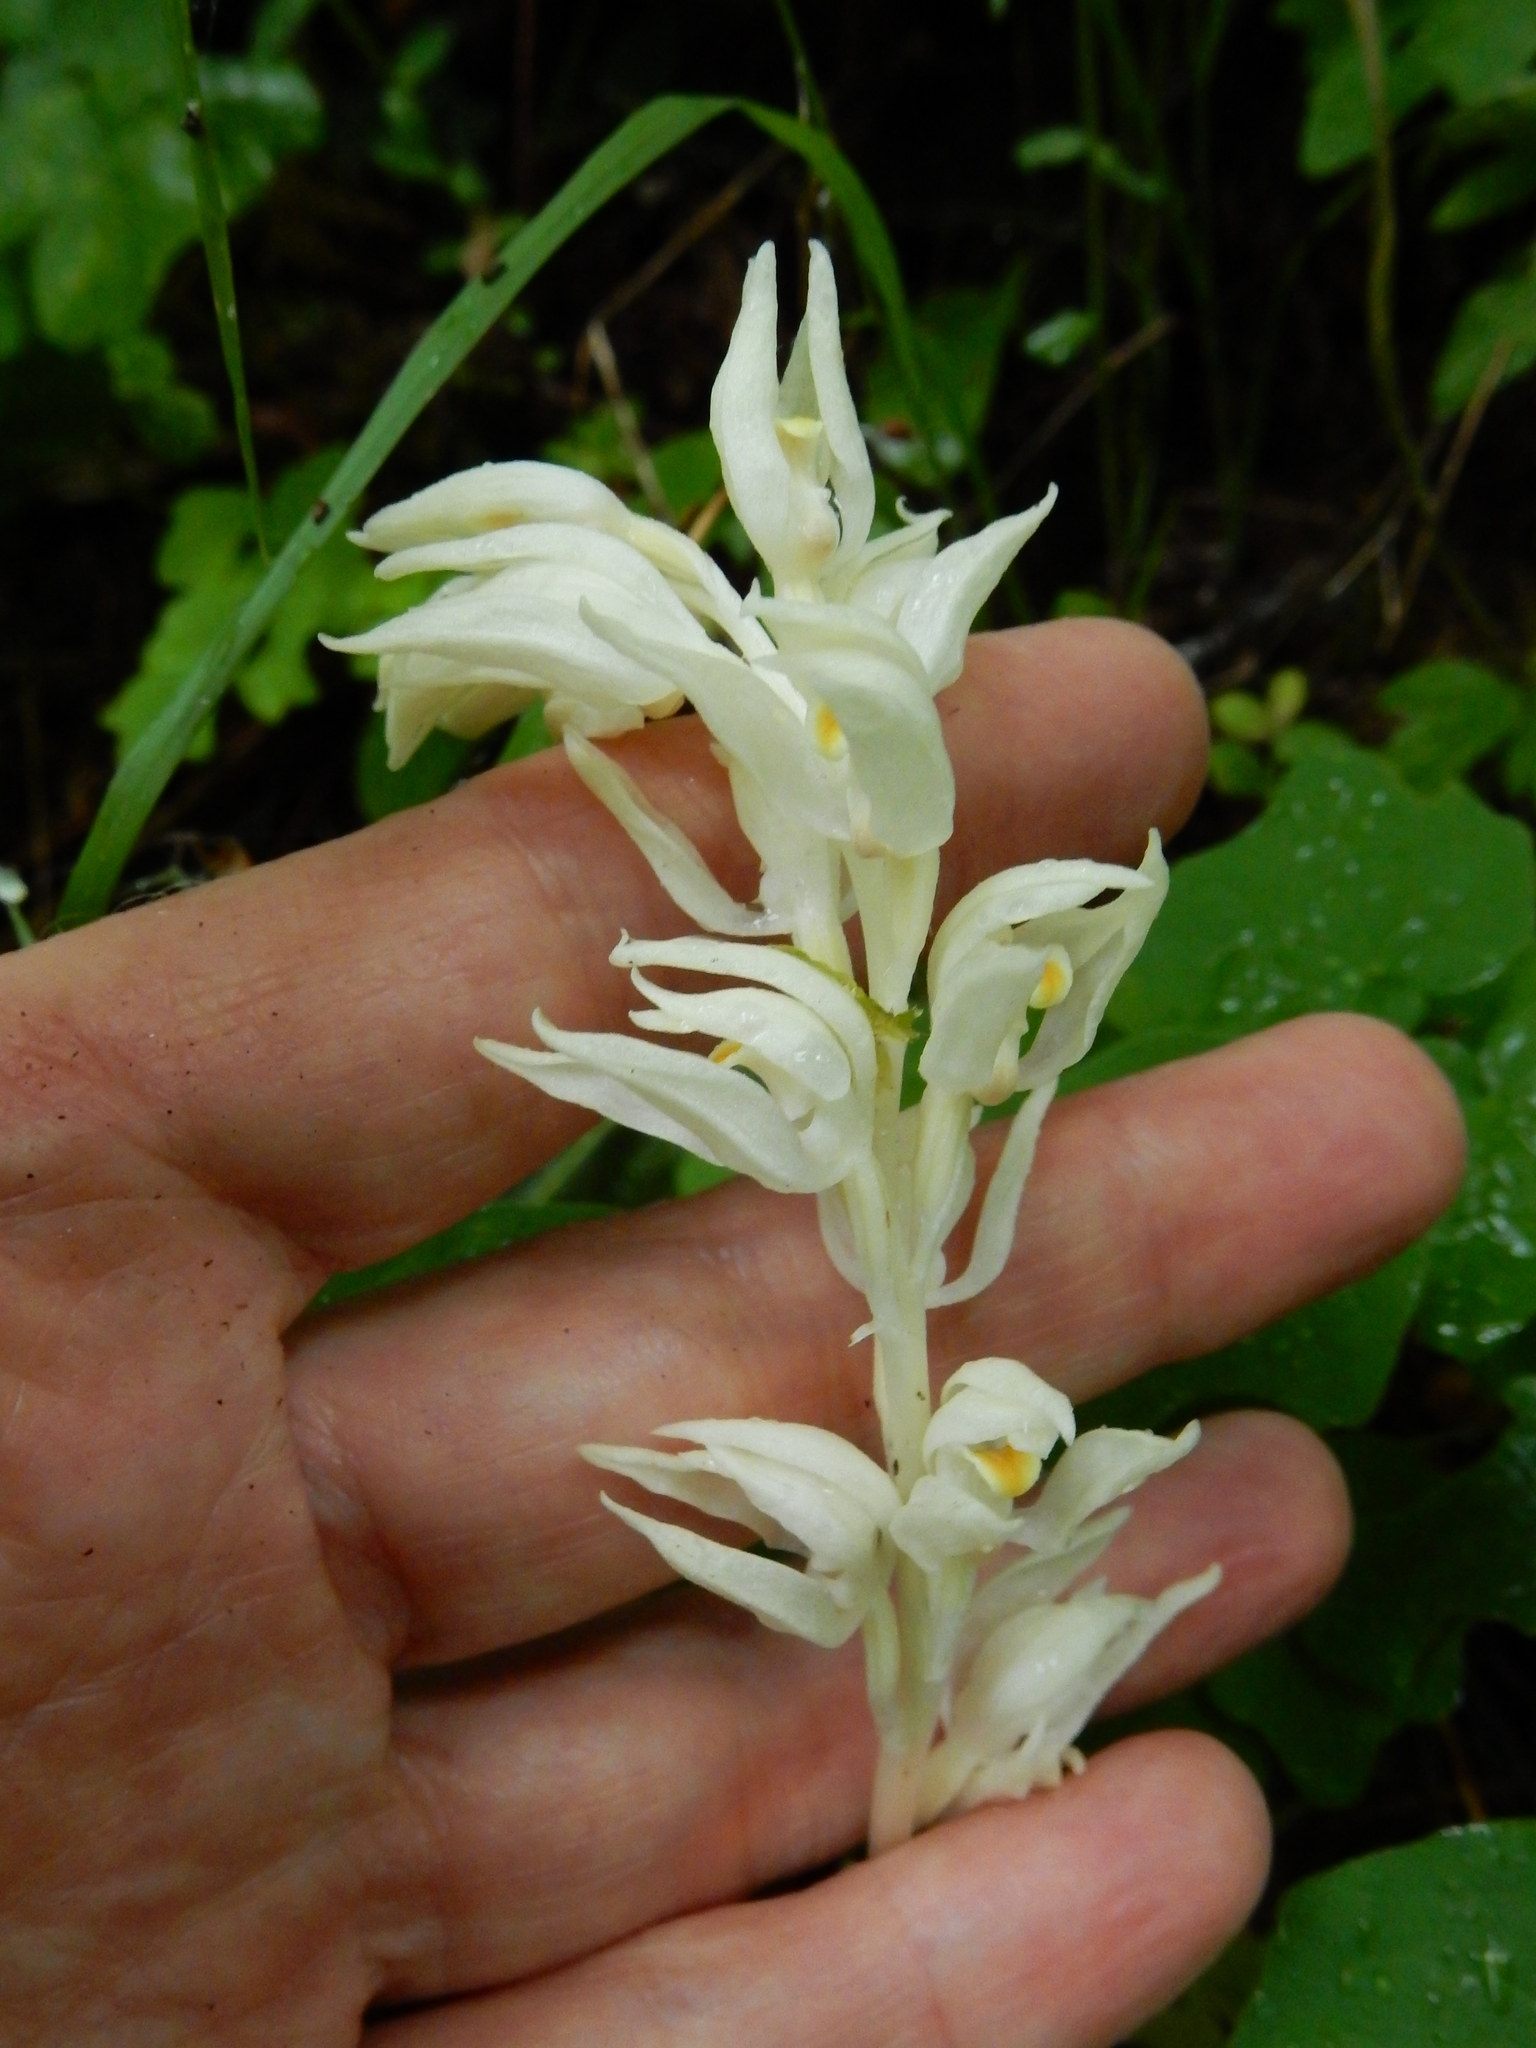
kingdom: Plantae
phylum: Tracheophyta
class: Liliopsida
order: Asparagales
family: Orchidaceae
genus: Cephalanthera
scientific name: Cephalanthera austiniae
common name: Phantom orchid
